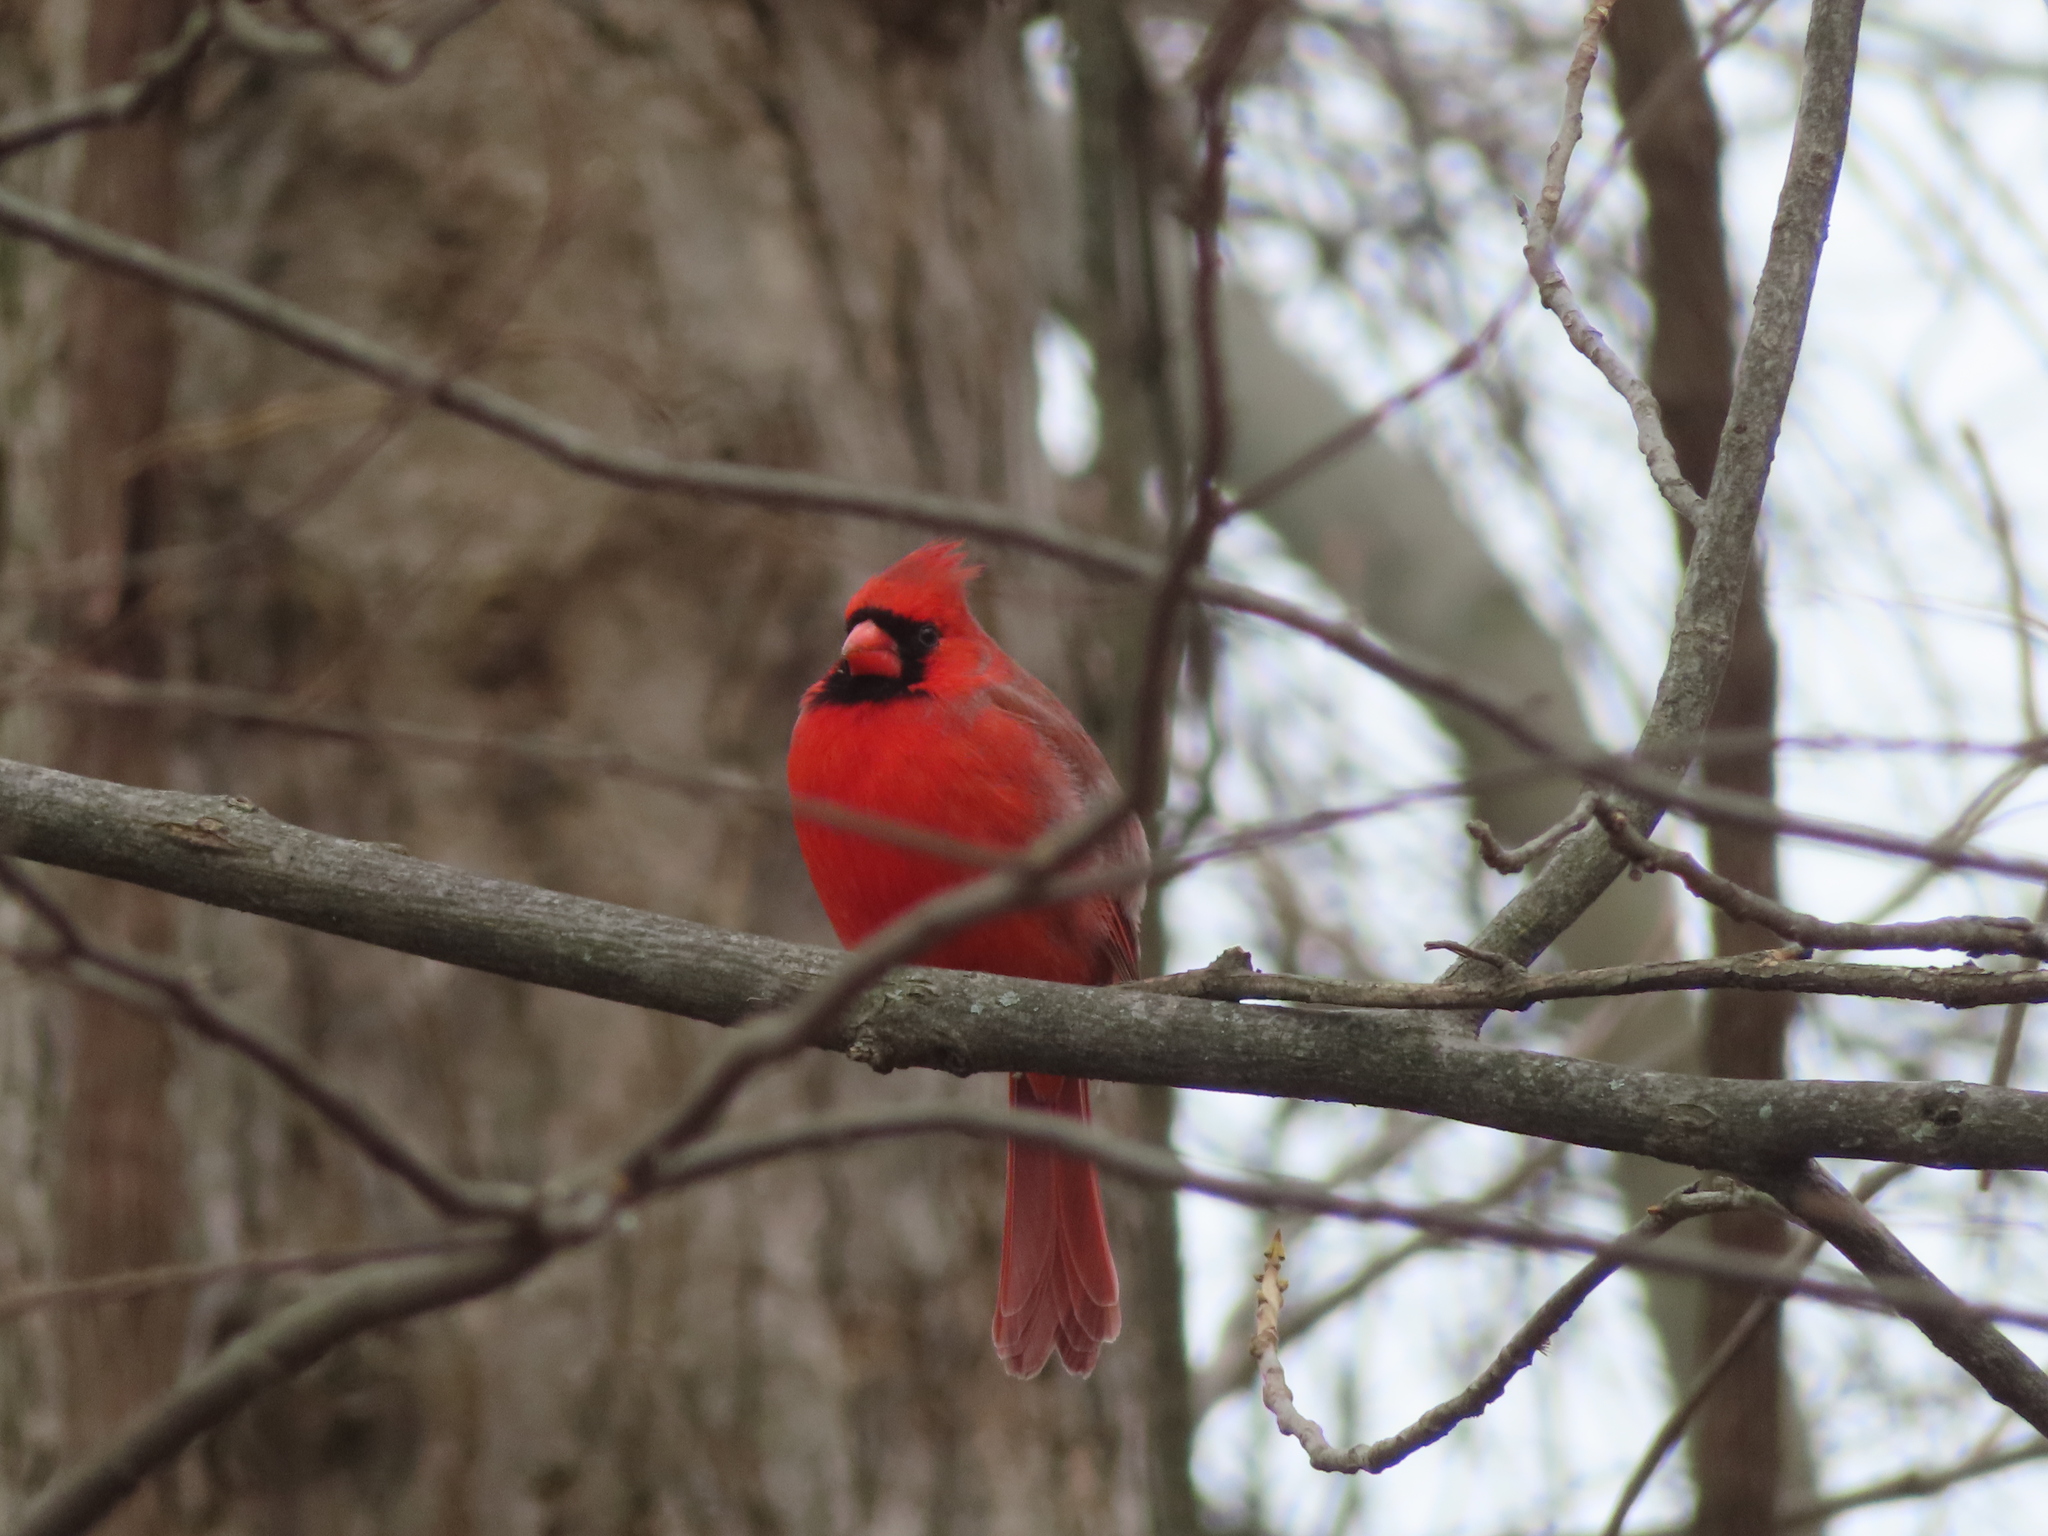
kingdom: Animalia
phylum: Chordata
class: Aves
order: Passeriformes
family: Cardinalidae
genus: Cardinalis
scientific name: Cardinalis cardinalis
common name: Northern cardinal
